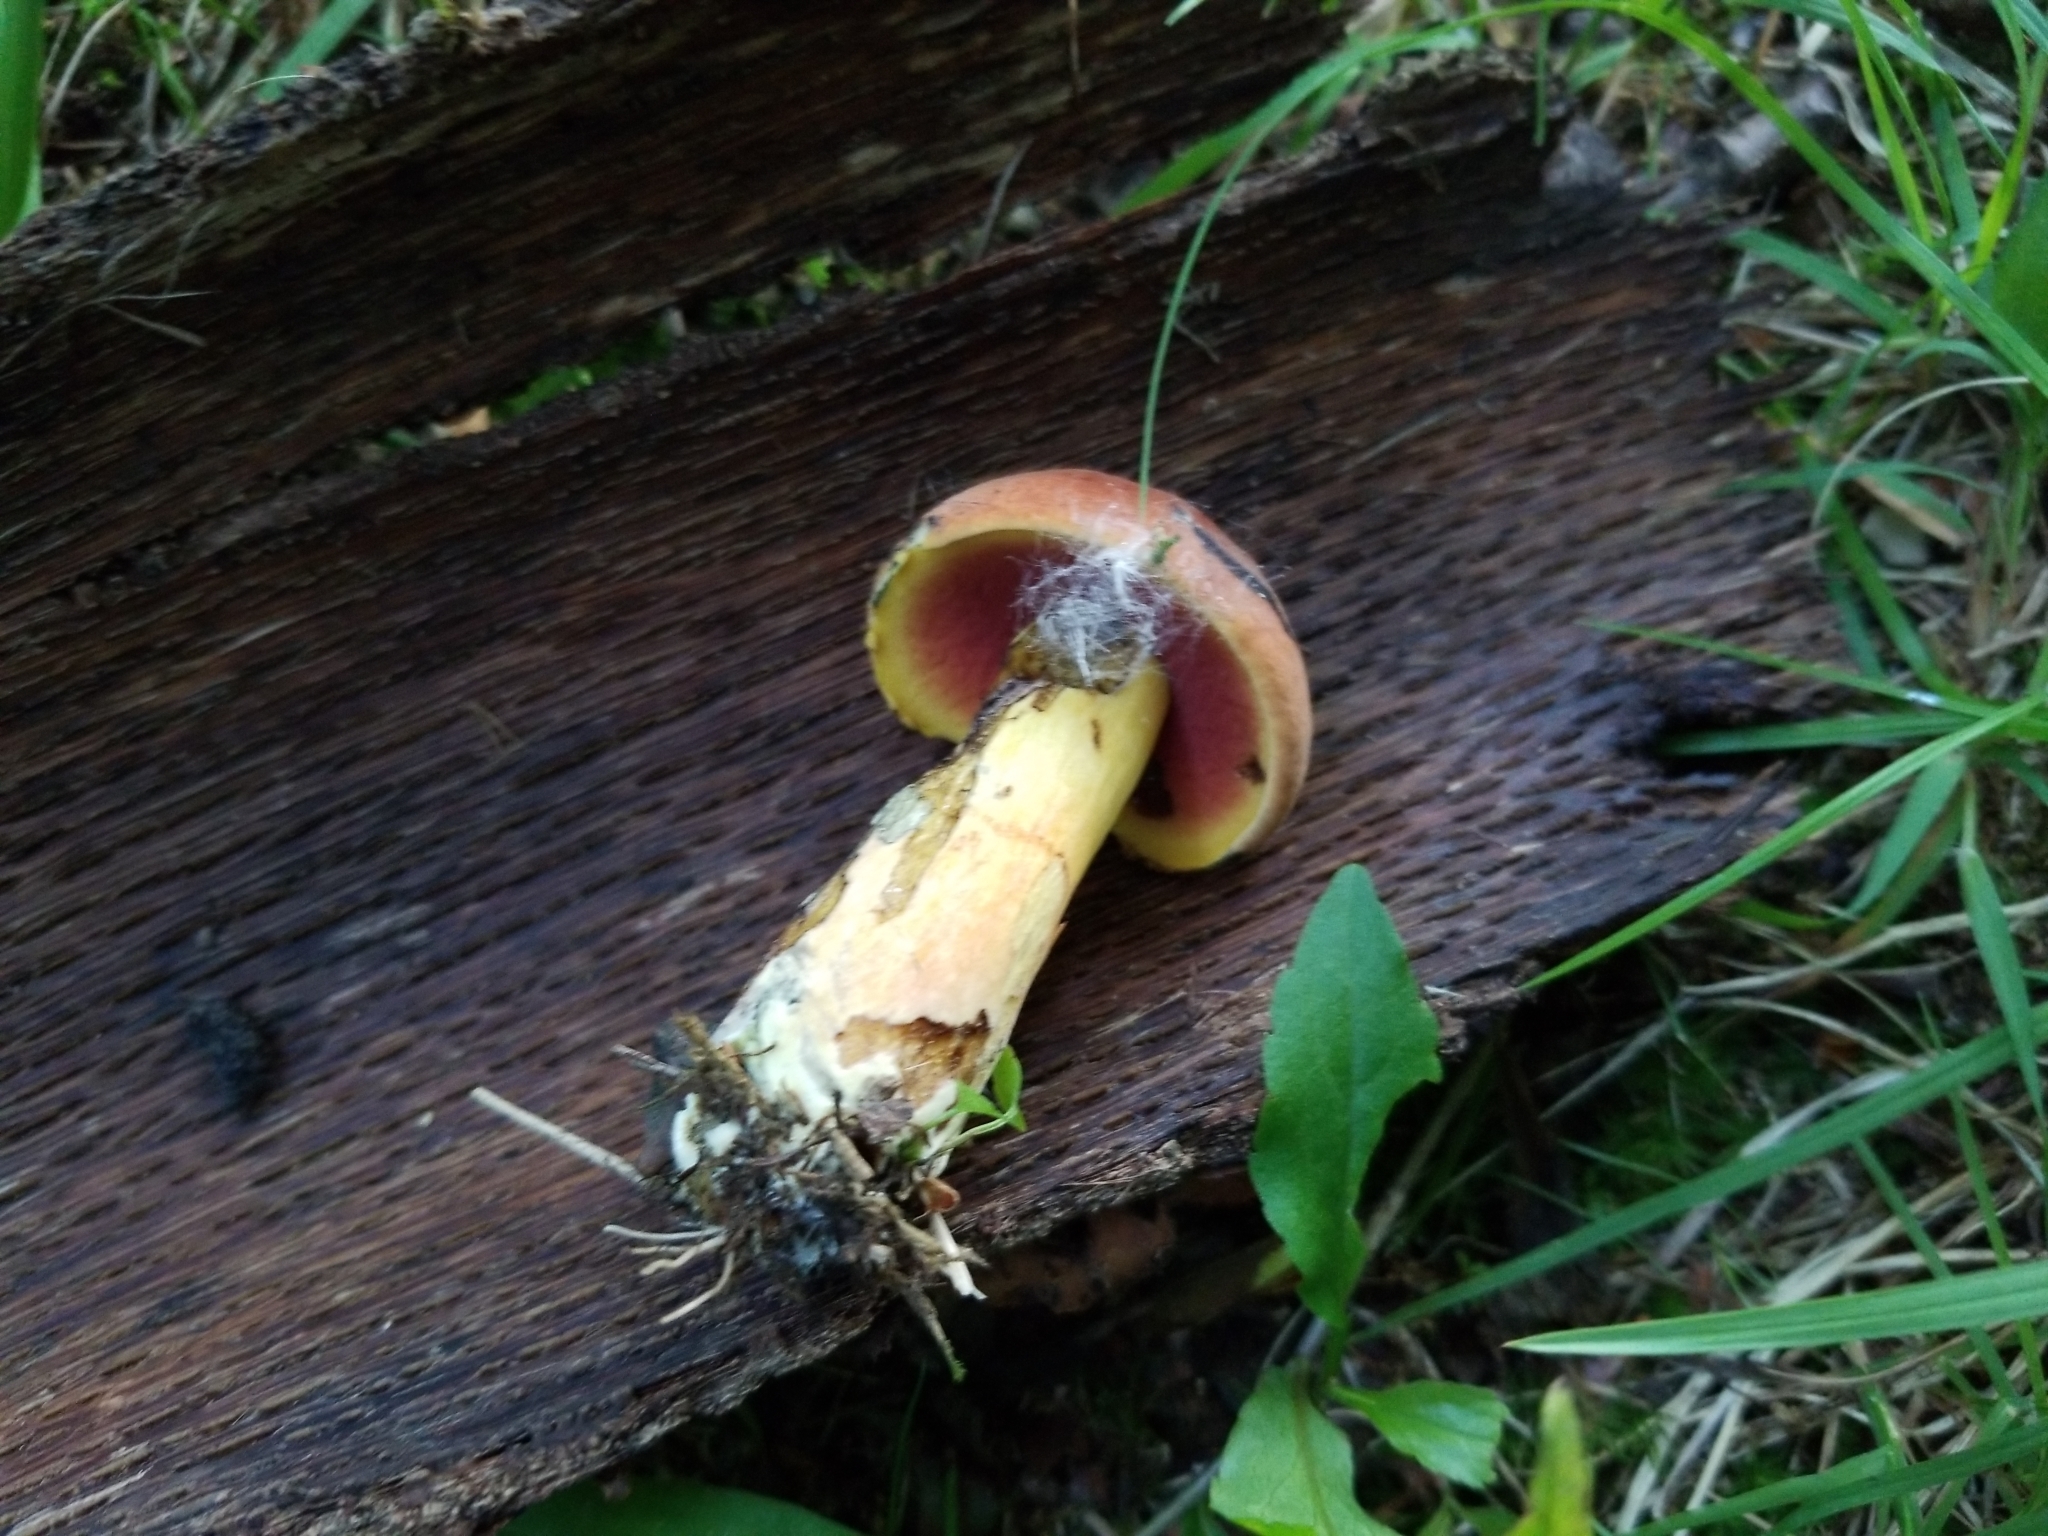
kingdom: Fungi
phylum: Basidiomycota
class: Agaricomycetes
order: Boletales
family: Boletaceae
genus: Boletus
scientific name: Boletus subvelutipes
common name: Red-mouth bolete
